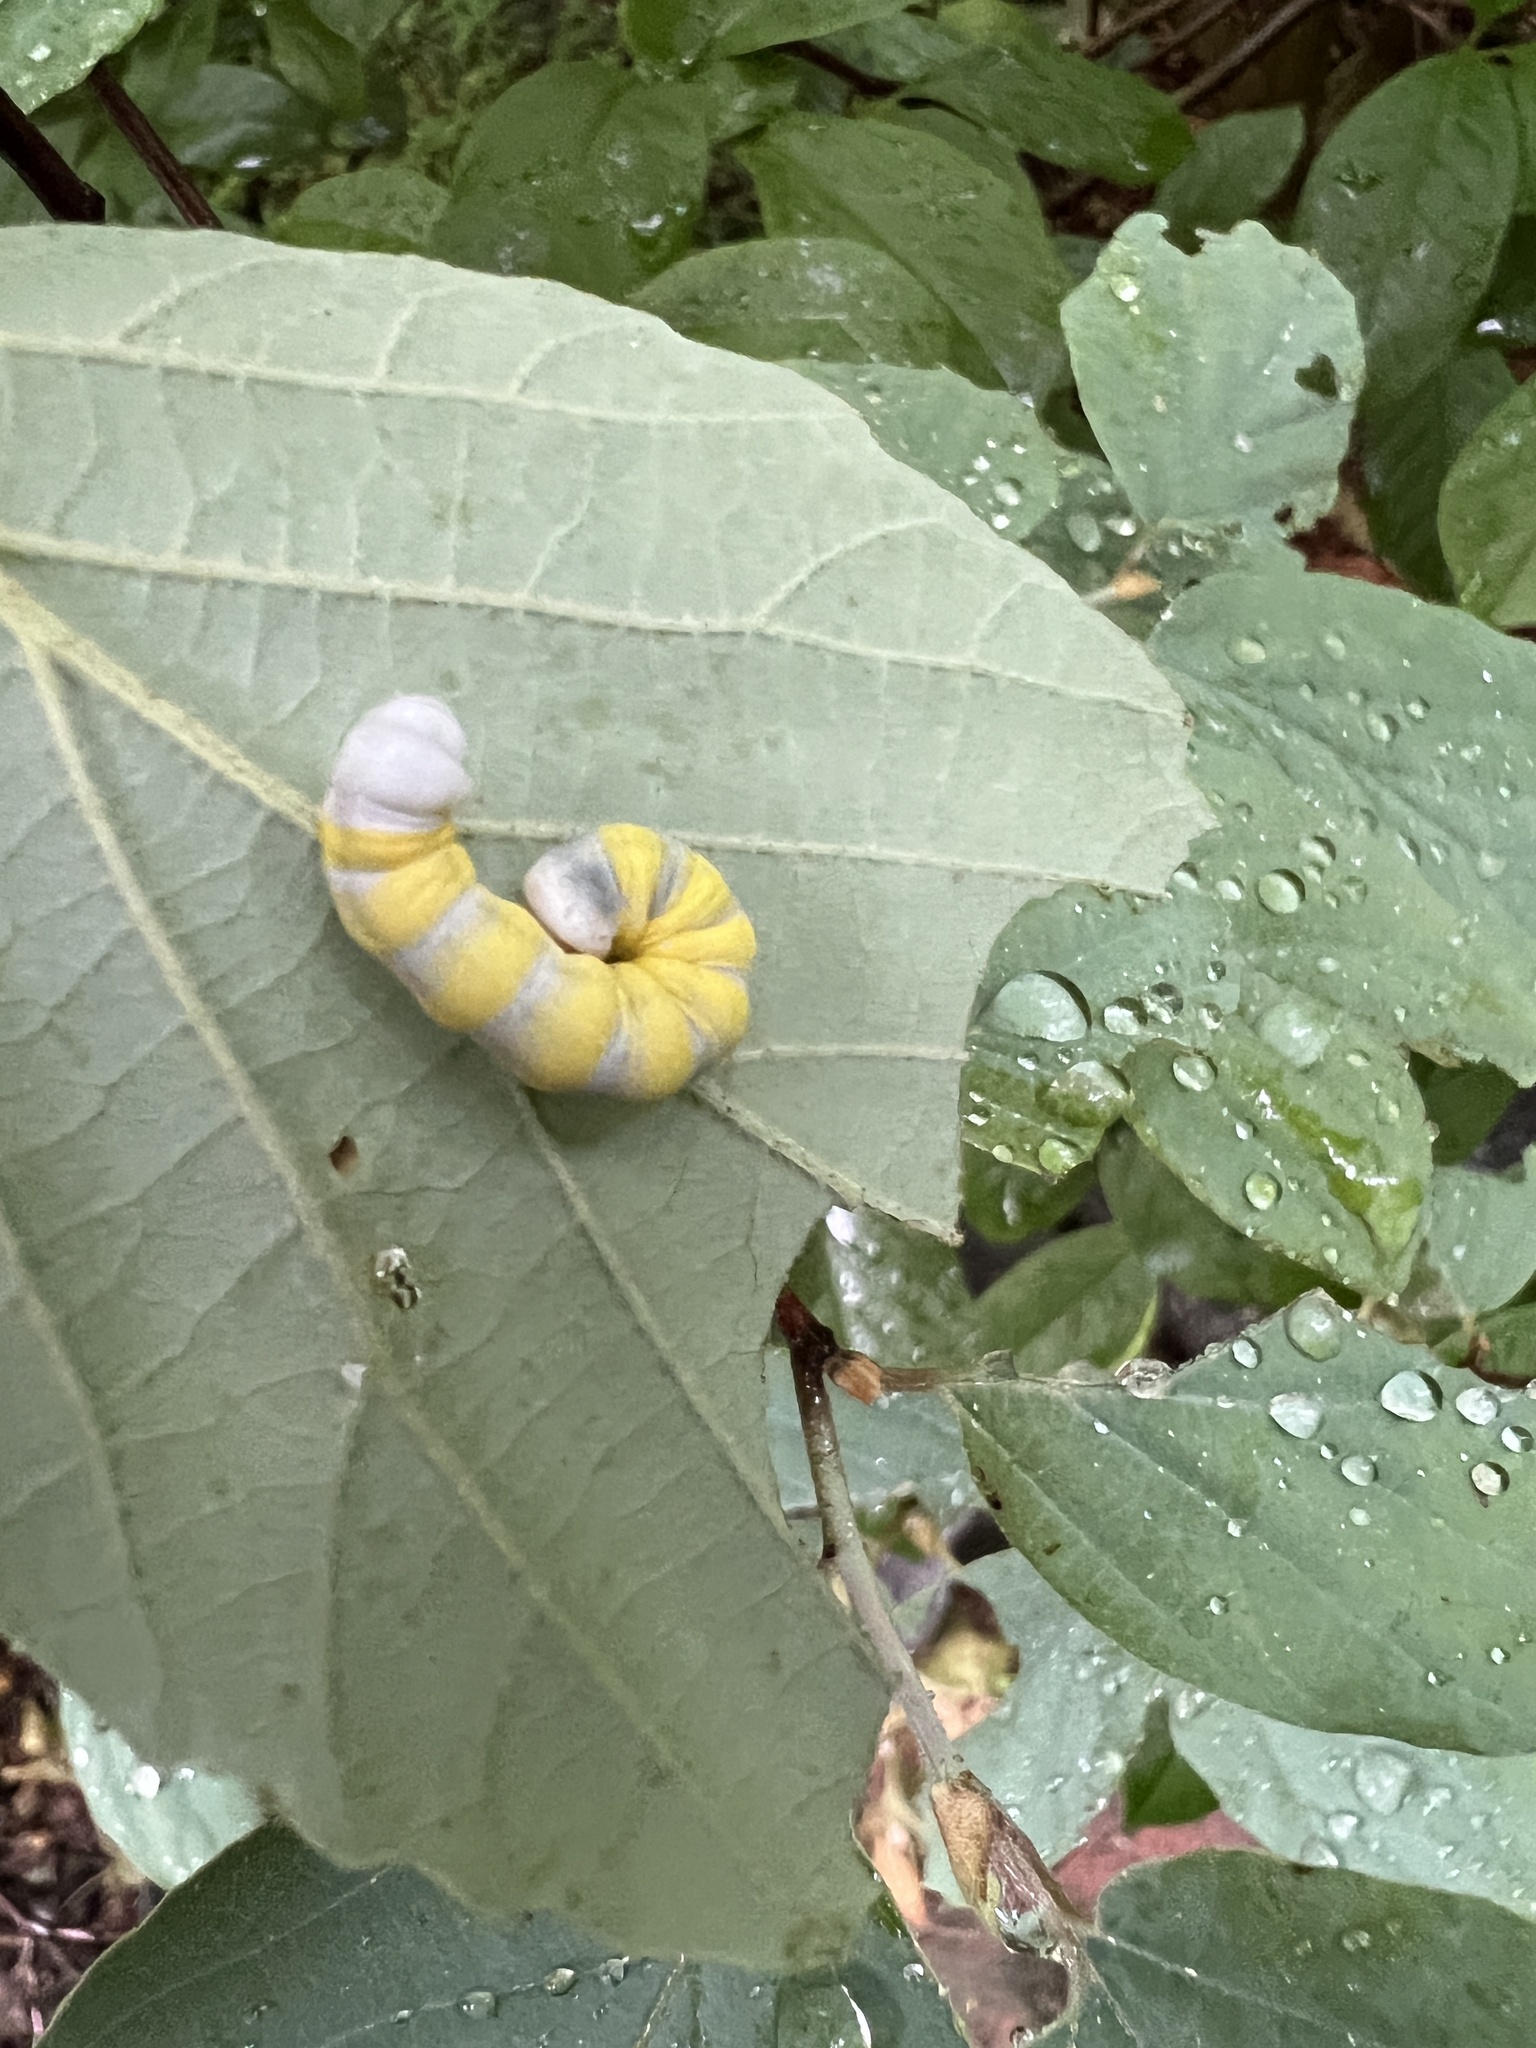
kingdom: Animalia
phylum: Arthropoda
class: Insecta
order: Lepidoptera
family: Noctuidae
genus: Pyreferra
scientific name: Pyreferra
